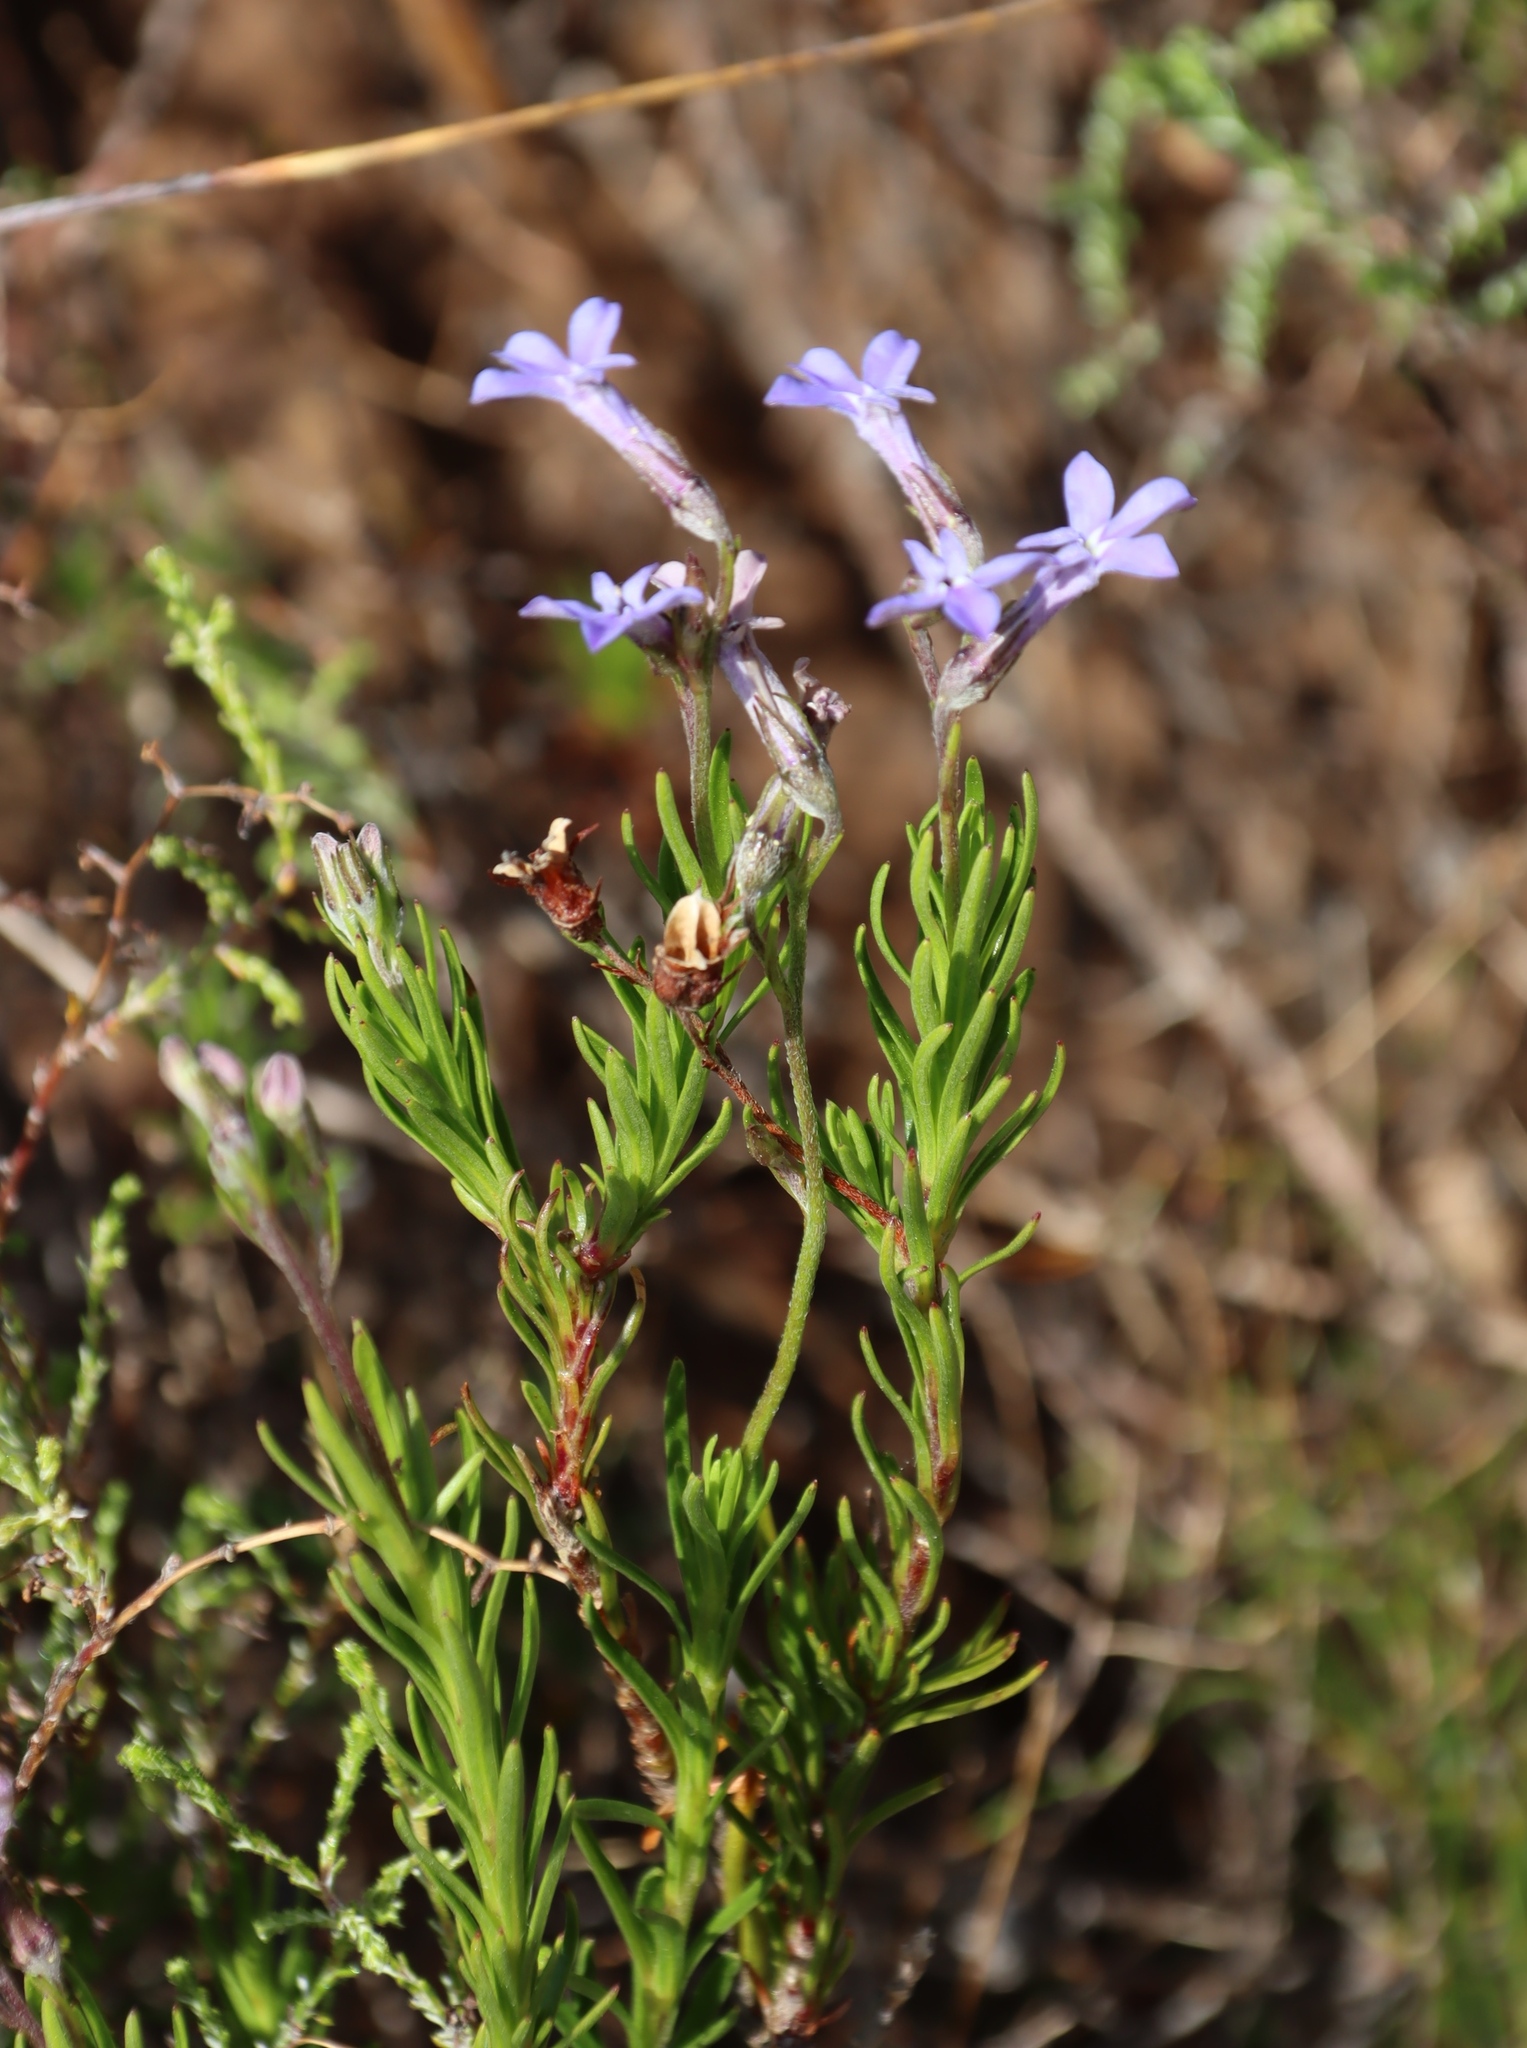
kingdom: Plantae
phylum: Tracheophyta
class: Magnoliopsida
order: Asterales
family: Campanulaceae
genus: Lobelia
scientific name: Lobelia pinifolia
